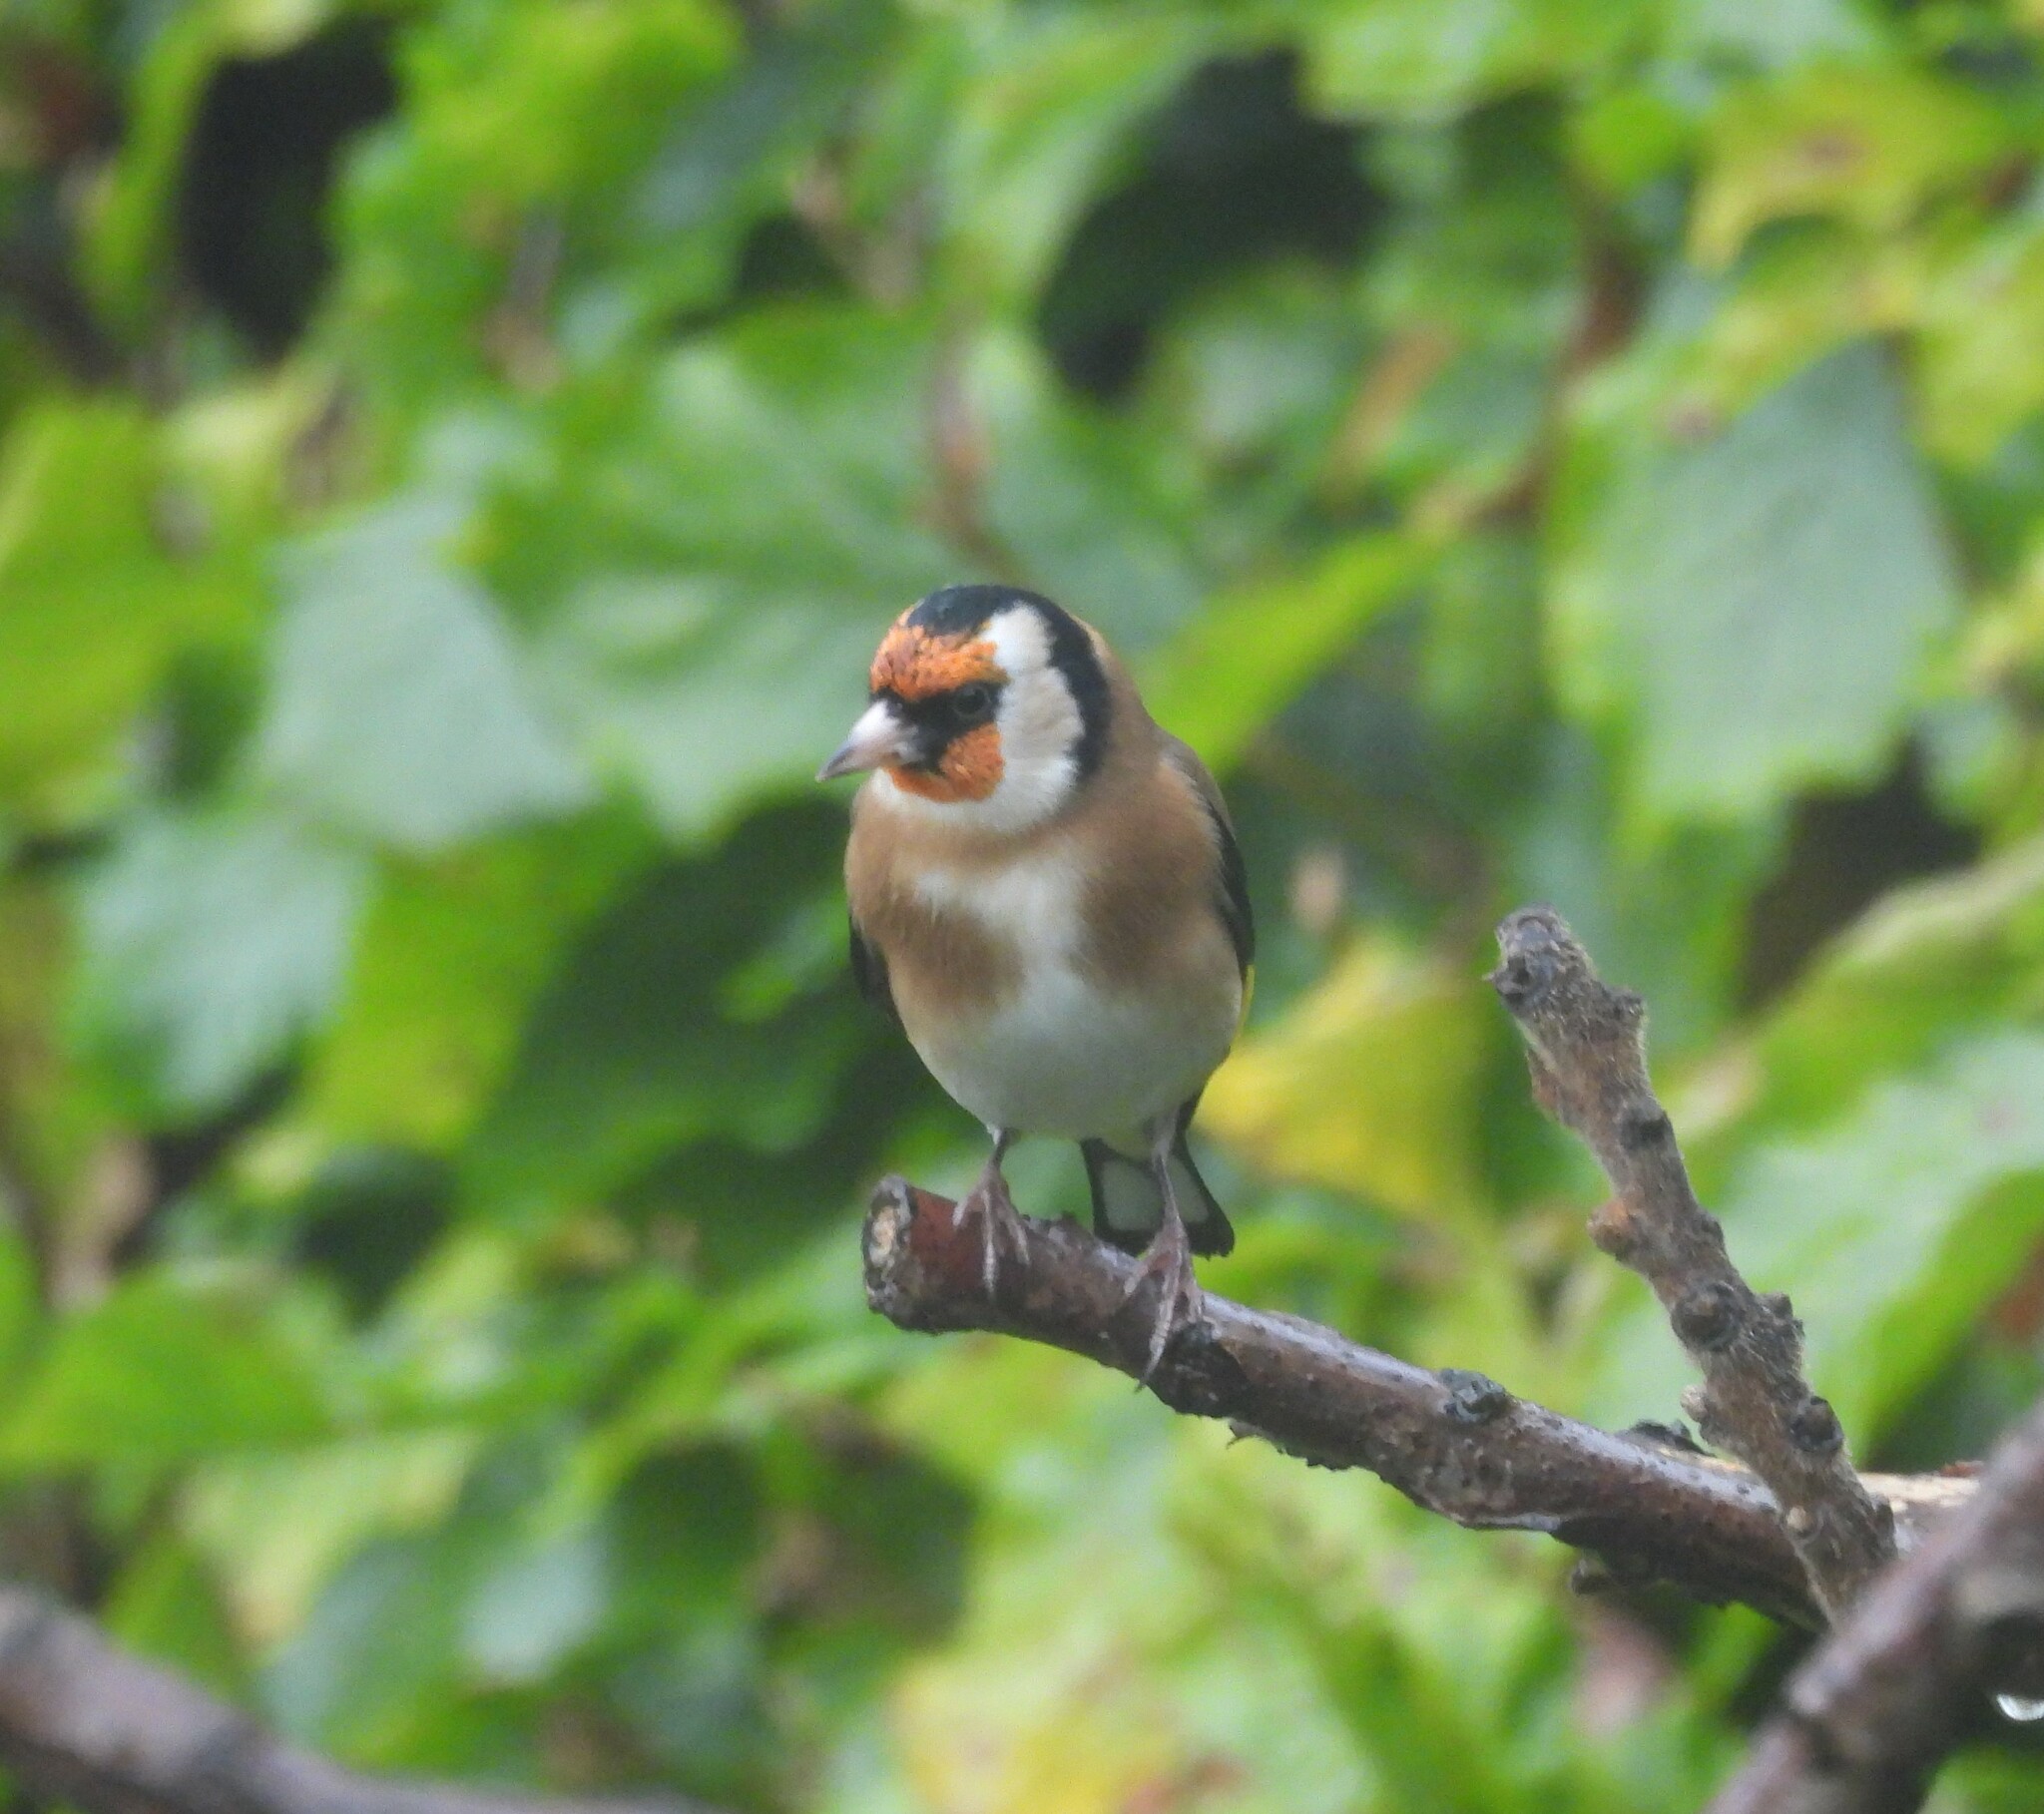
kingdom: Animalia
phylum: Chordata
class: Aves
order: Passeriformes
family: Fringillidae
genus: Carduelis
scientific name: Carduelis carduelis
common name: European goldfinch
